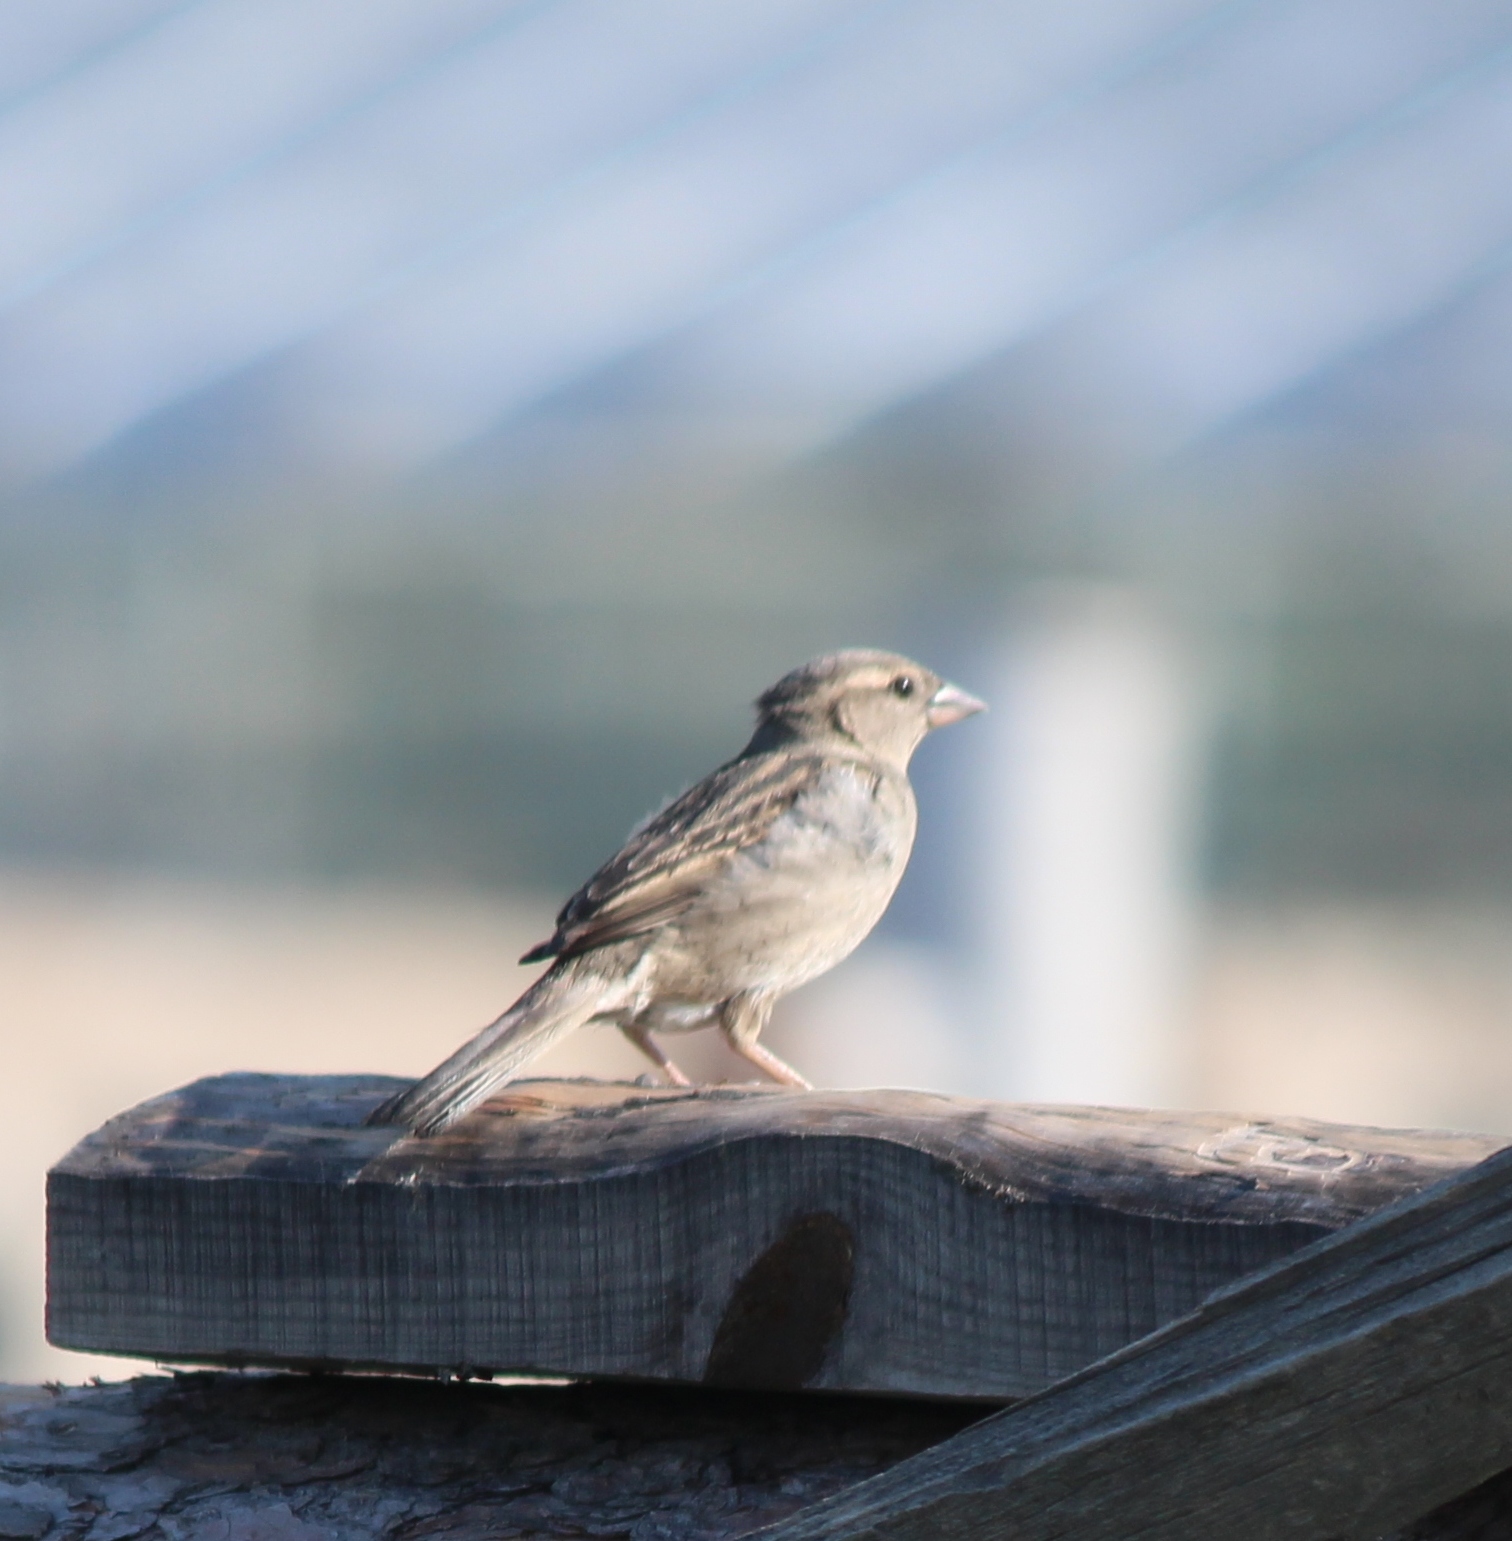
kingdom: Animalia
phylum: Chordata
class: Aves
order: Passeriformes
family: Passeridae
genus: Passer
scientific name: Passer domesticus
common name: House sparrow
